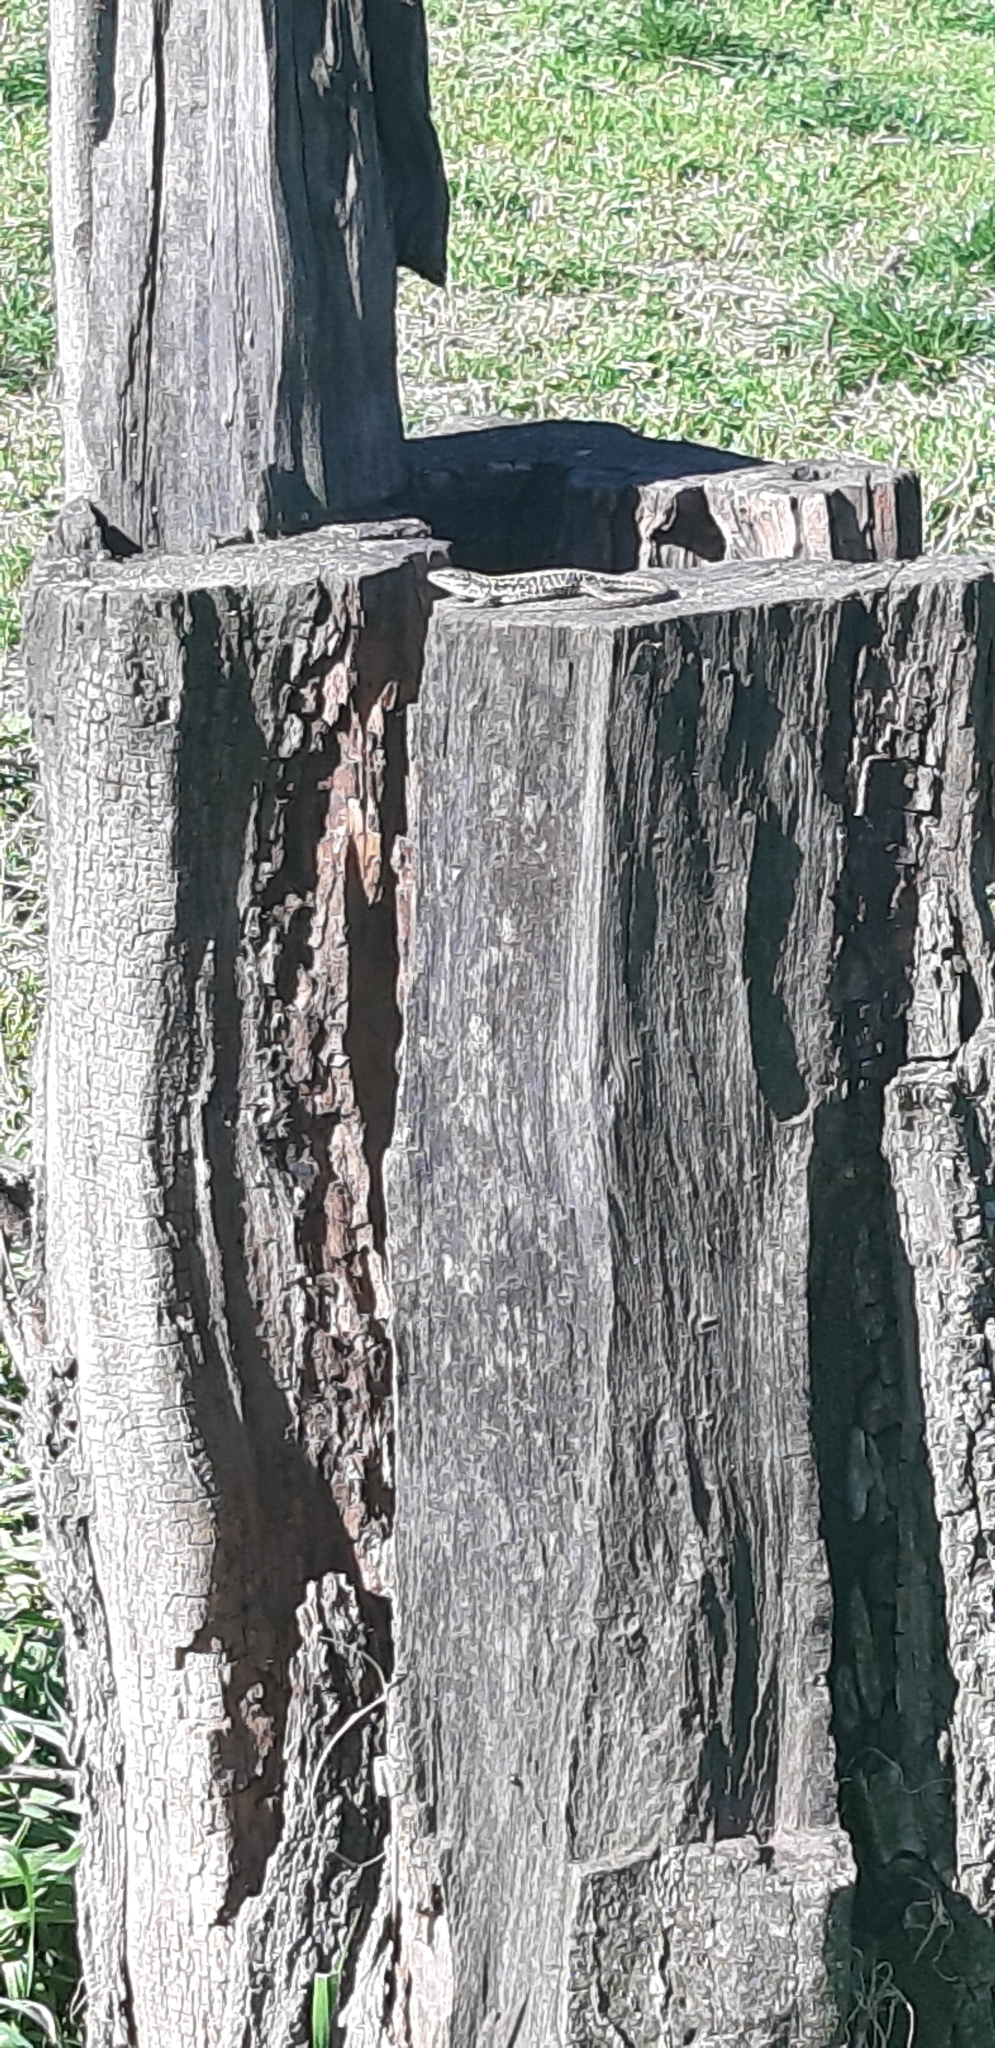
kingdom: Animalia
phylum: Chordata
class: Squamata
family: Lacertidae
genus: Podarcis
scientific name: Podarcis siculus
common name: Italian wall lizard
